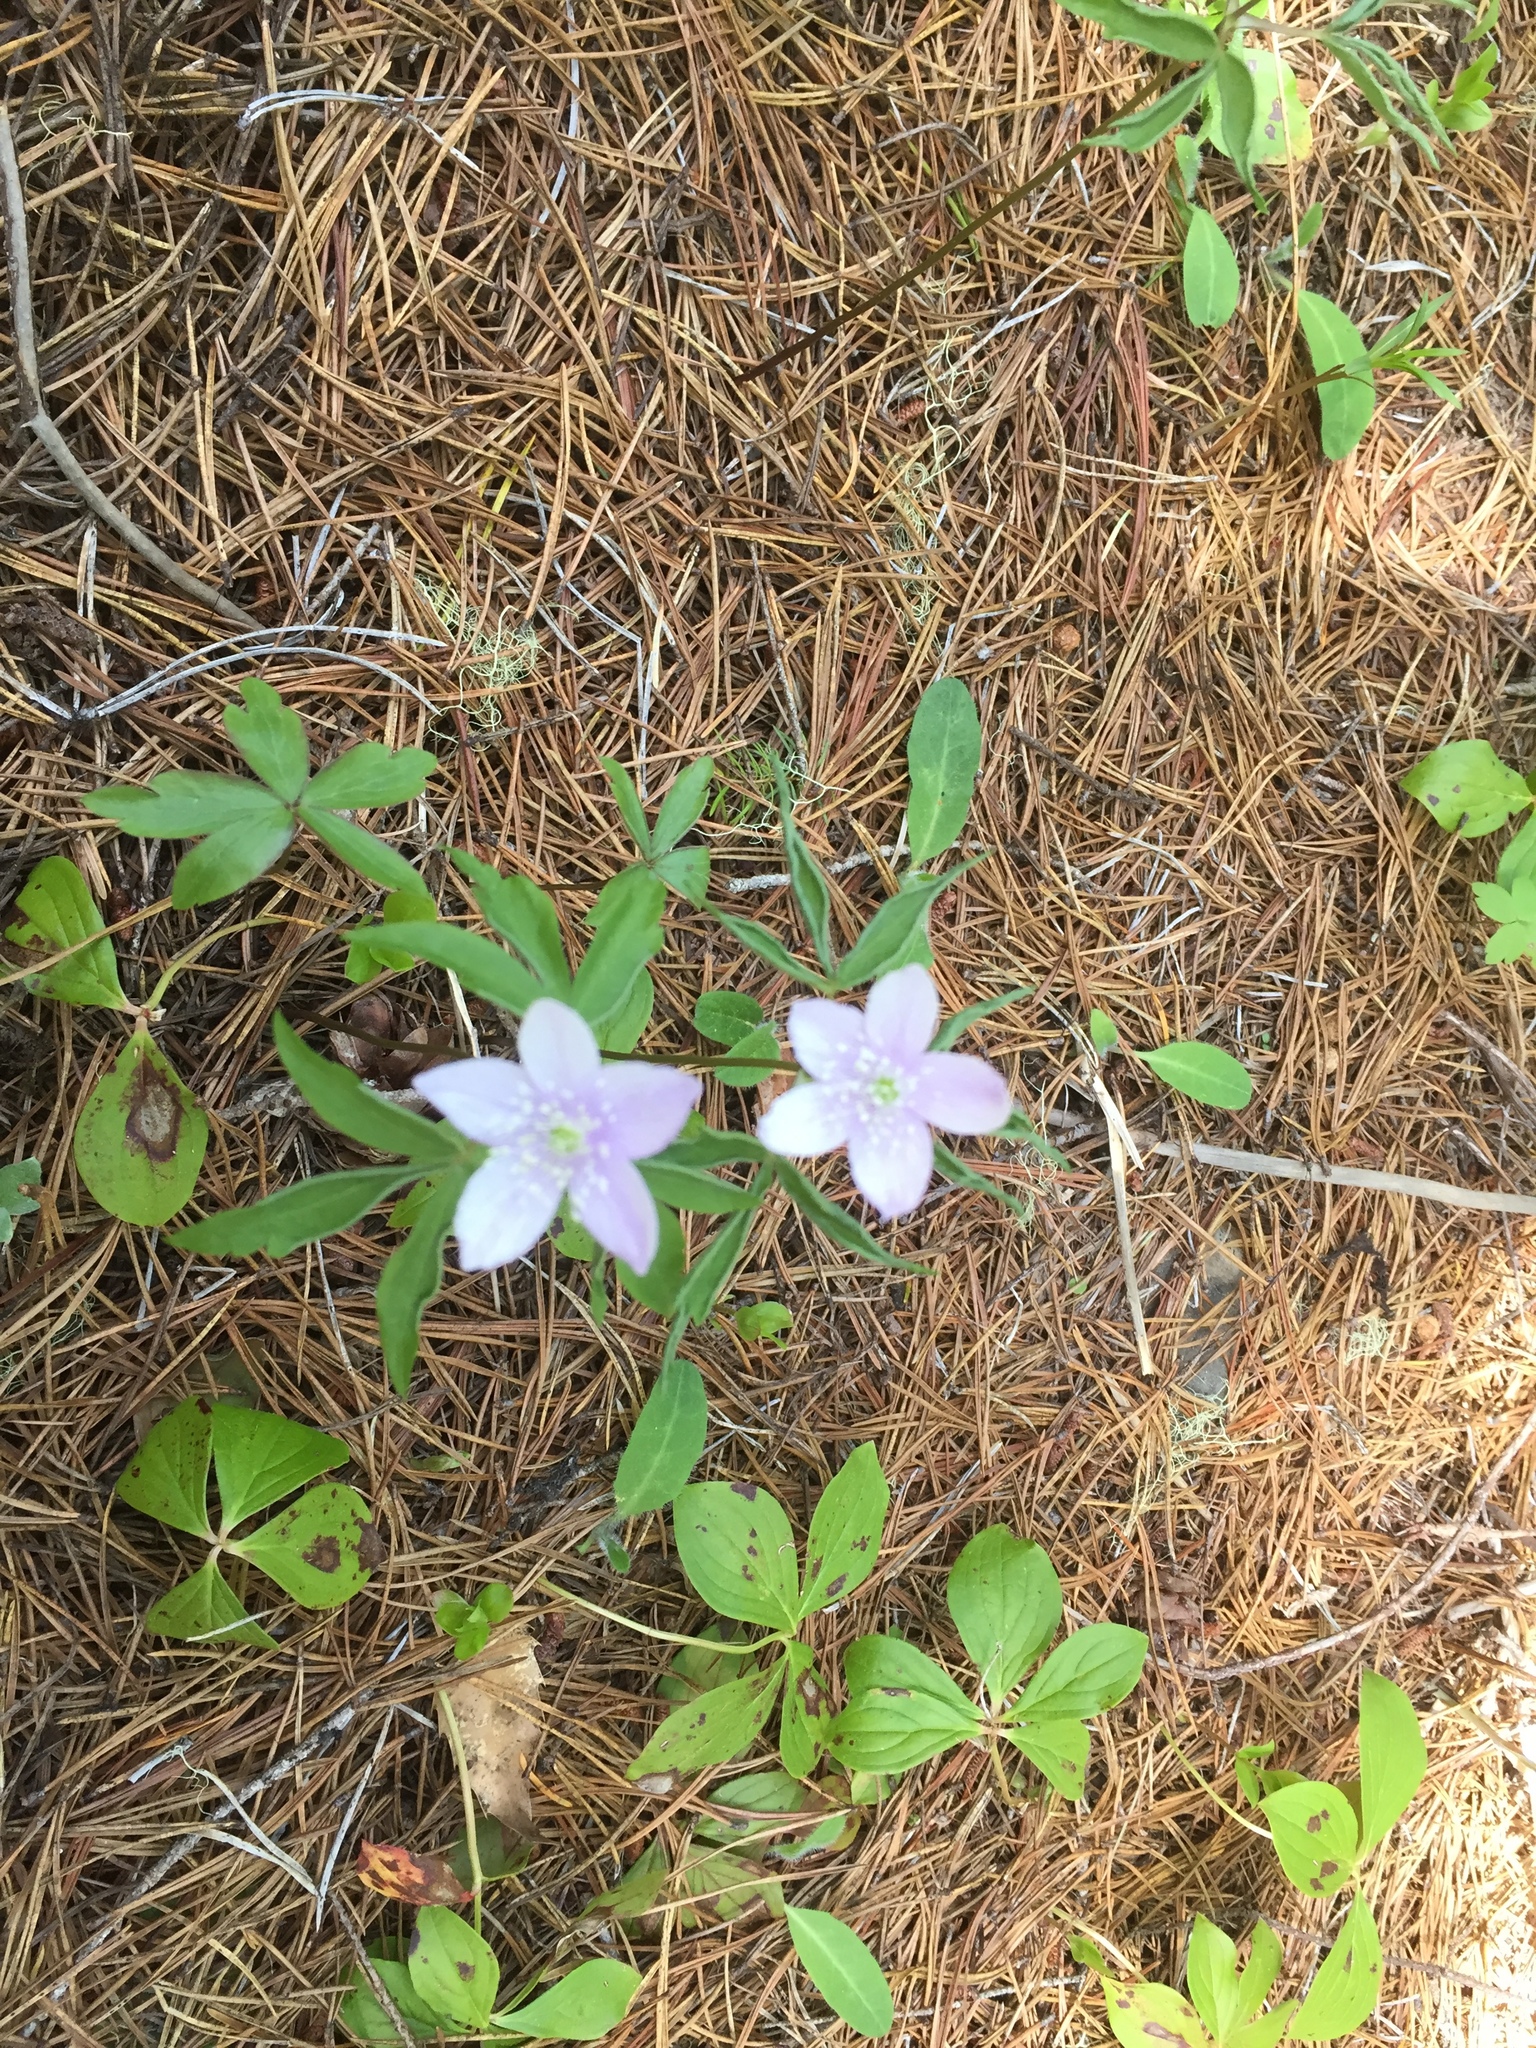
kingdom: Plantae
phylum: Tracheophyta
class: Magnoliopsida
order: Ranunculales
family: Ranunculaceae
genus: Anemone
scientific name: Anemone oregana
